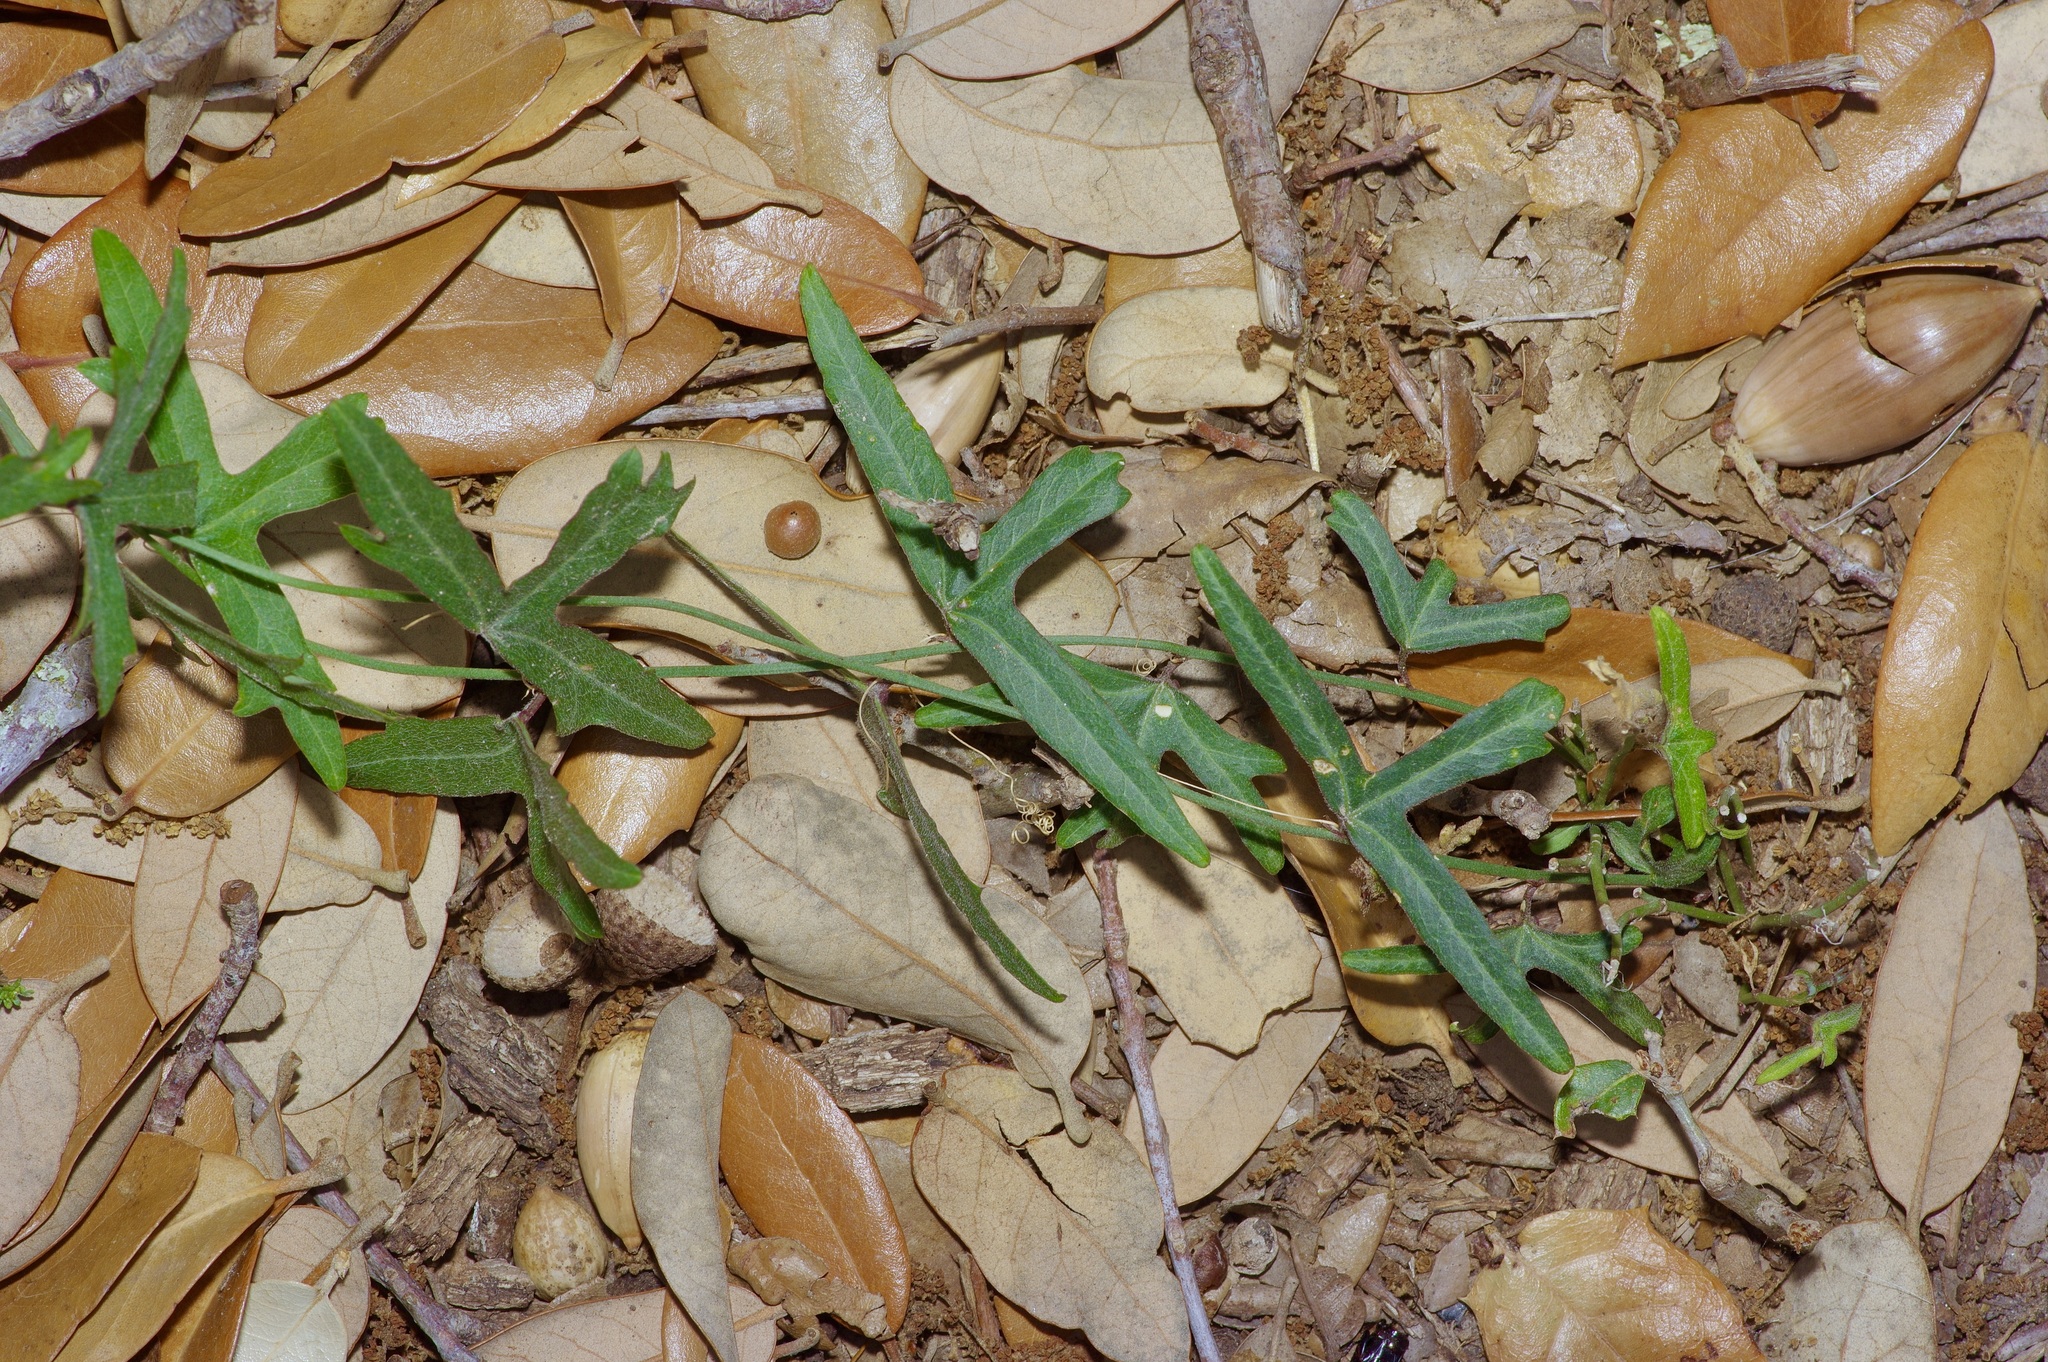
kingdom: Plantae
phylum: Tracheophyta
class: Magnoliopsida
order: Malpighiales
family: Passifloraceae
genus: Passiflora
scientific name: Passiflora tenuiloba
